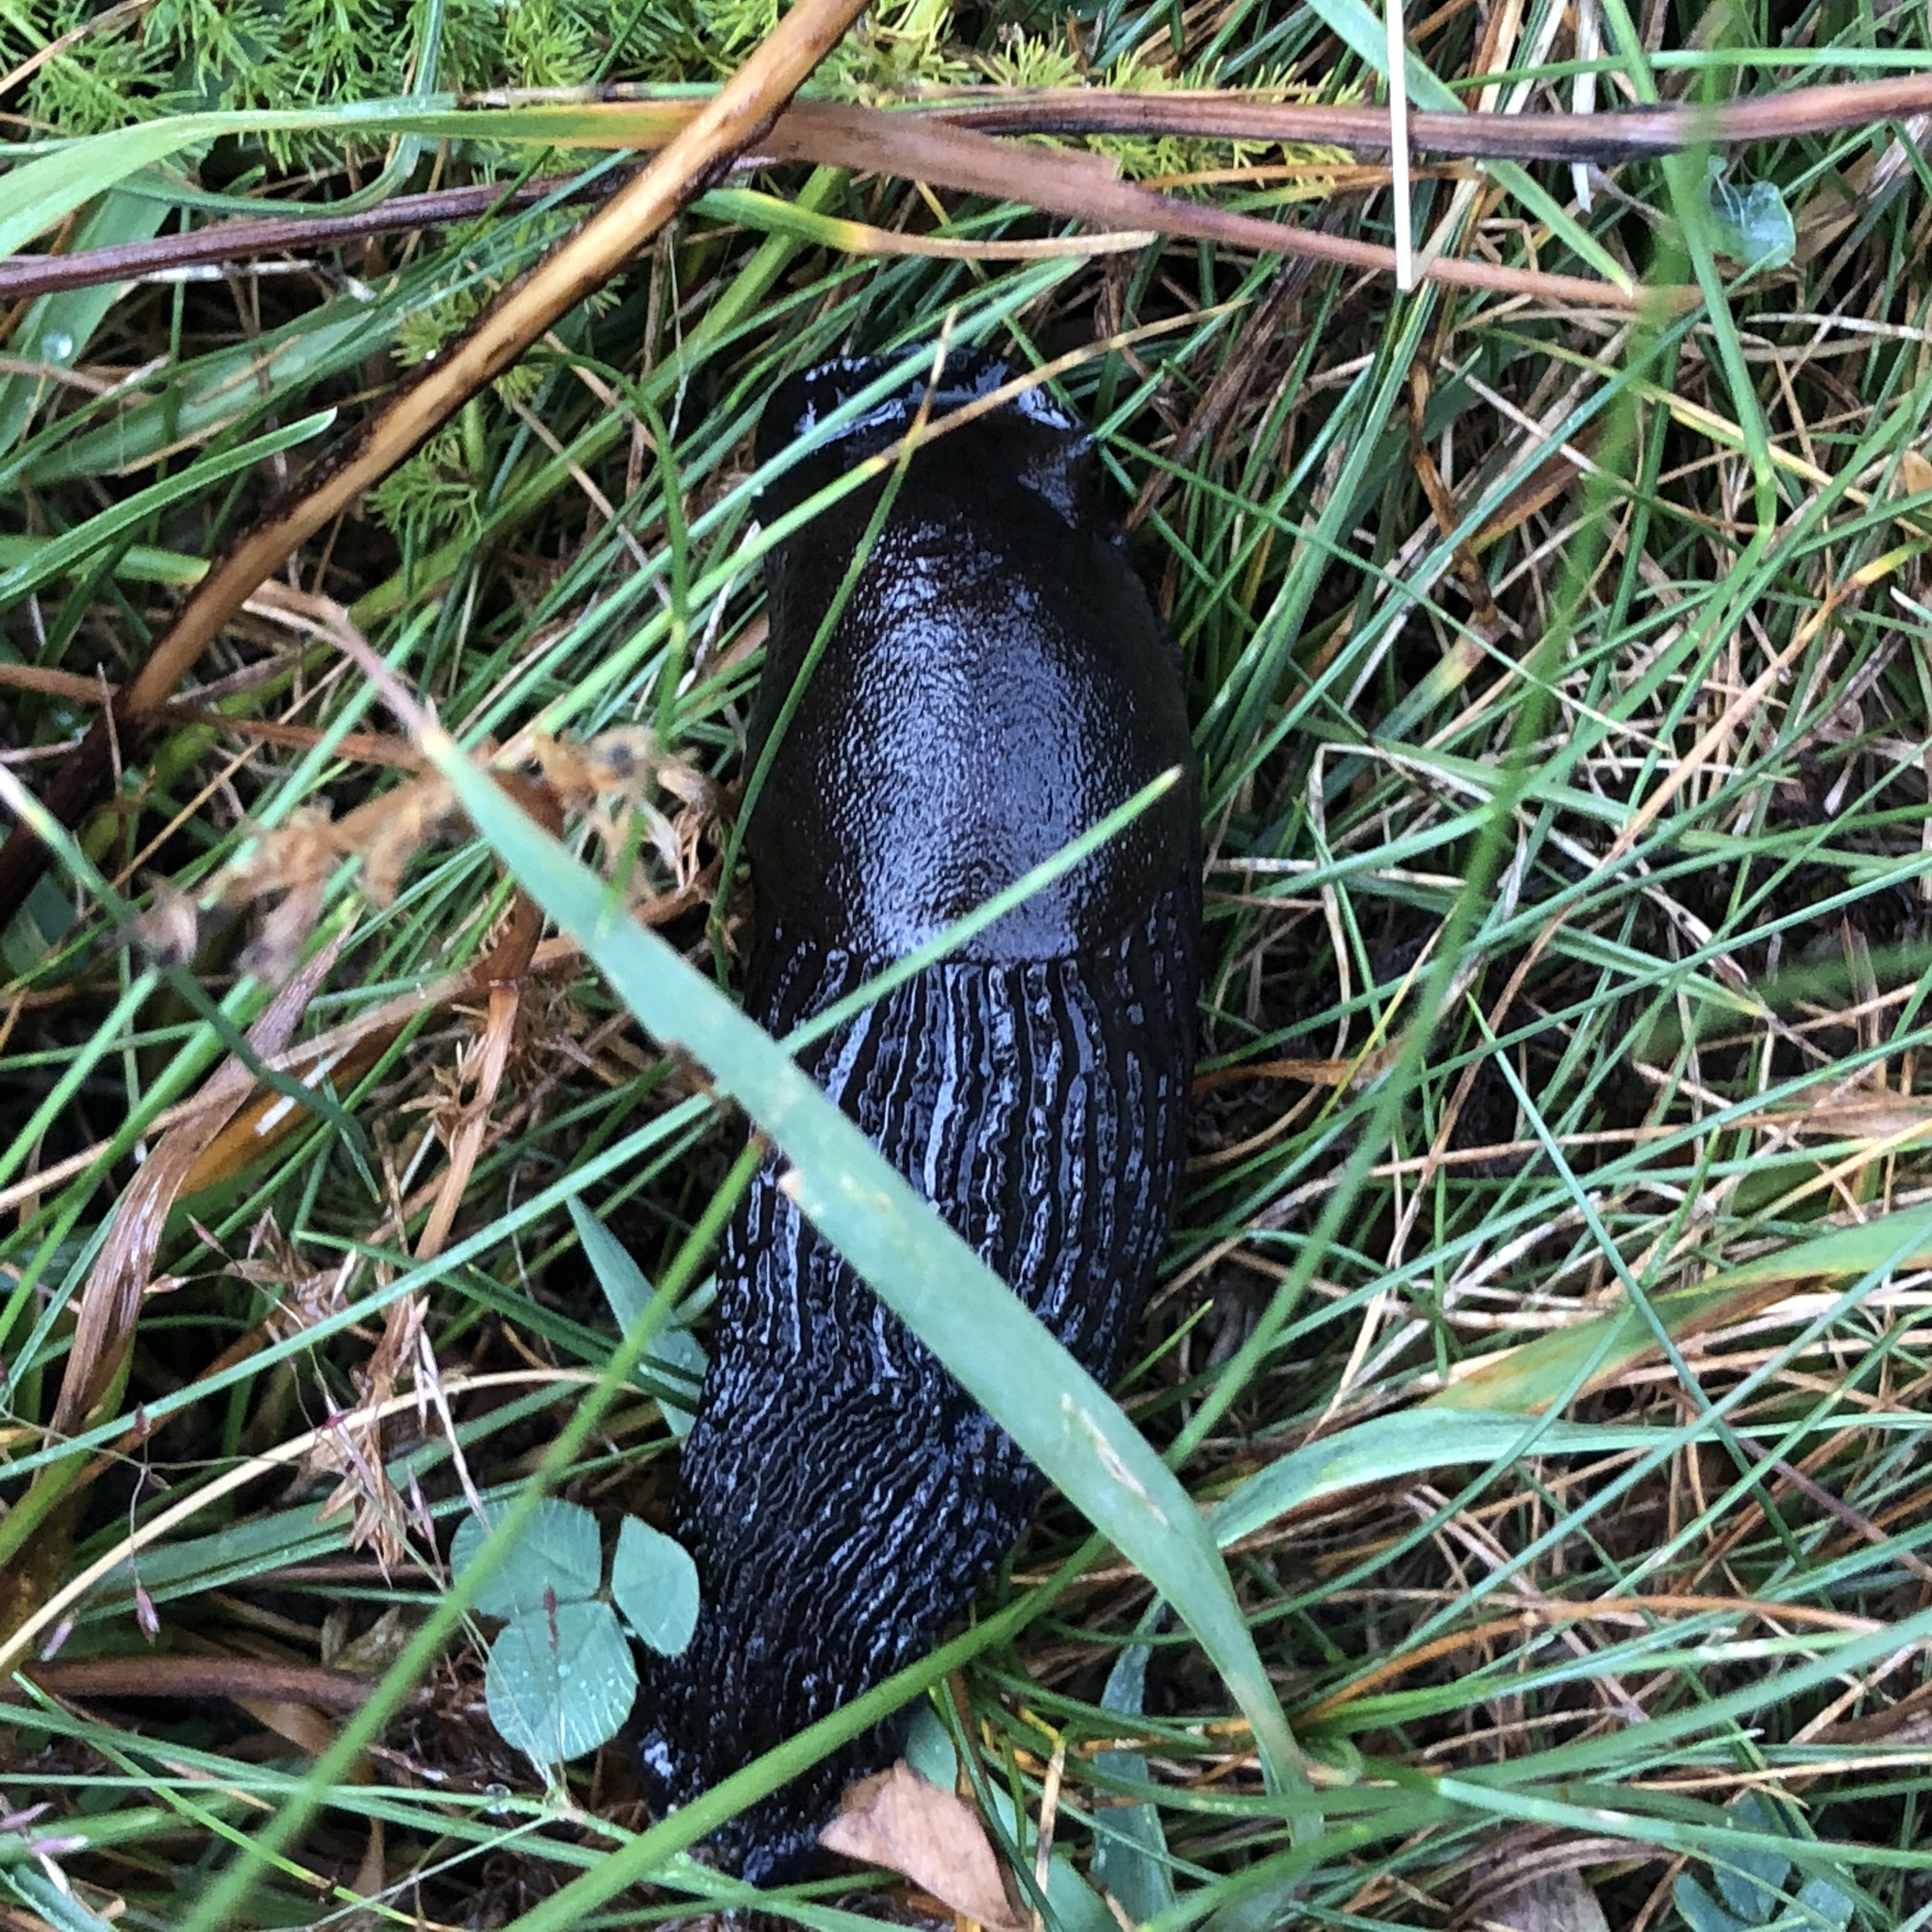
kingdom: Animalia
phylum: Mollusca
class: Gastropoda
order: Stylommatophora
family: Arionidae
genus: Arion
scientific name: Arion ater
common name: Black arion
